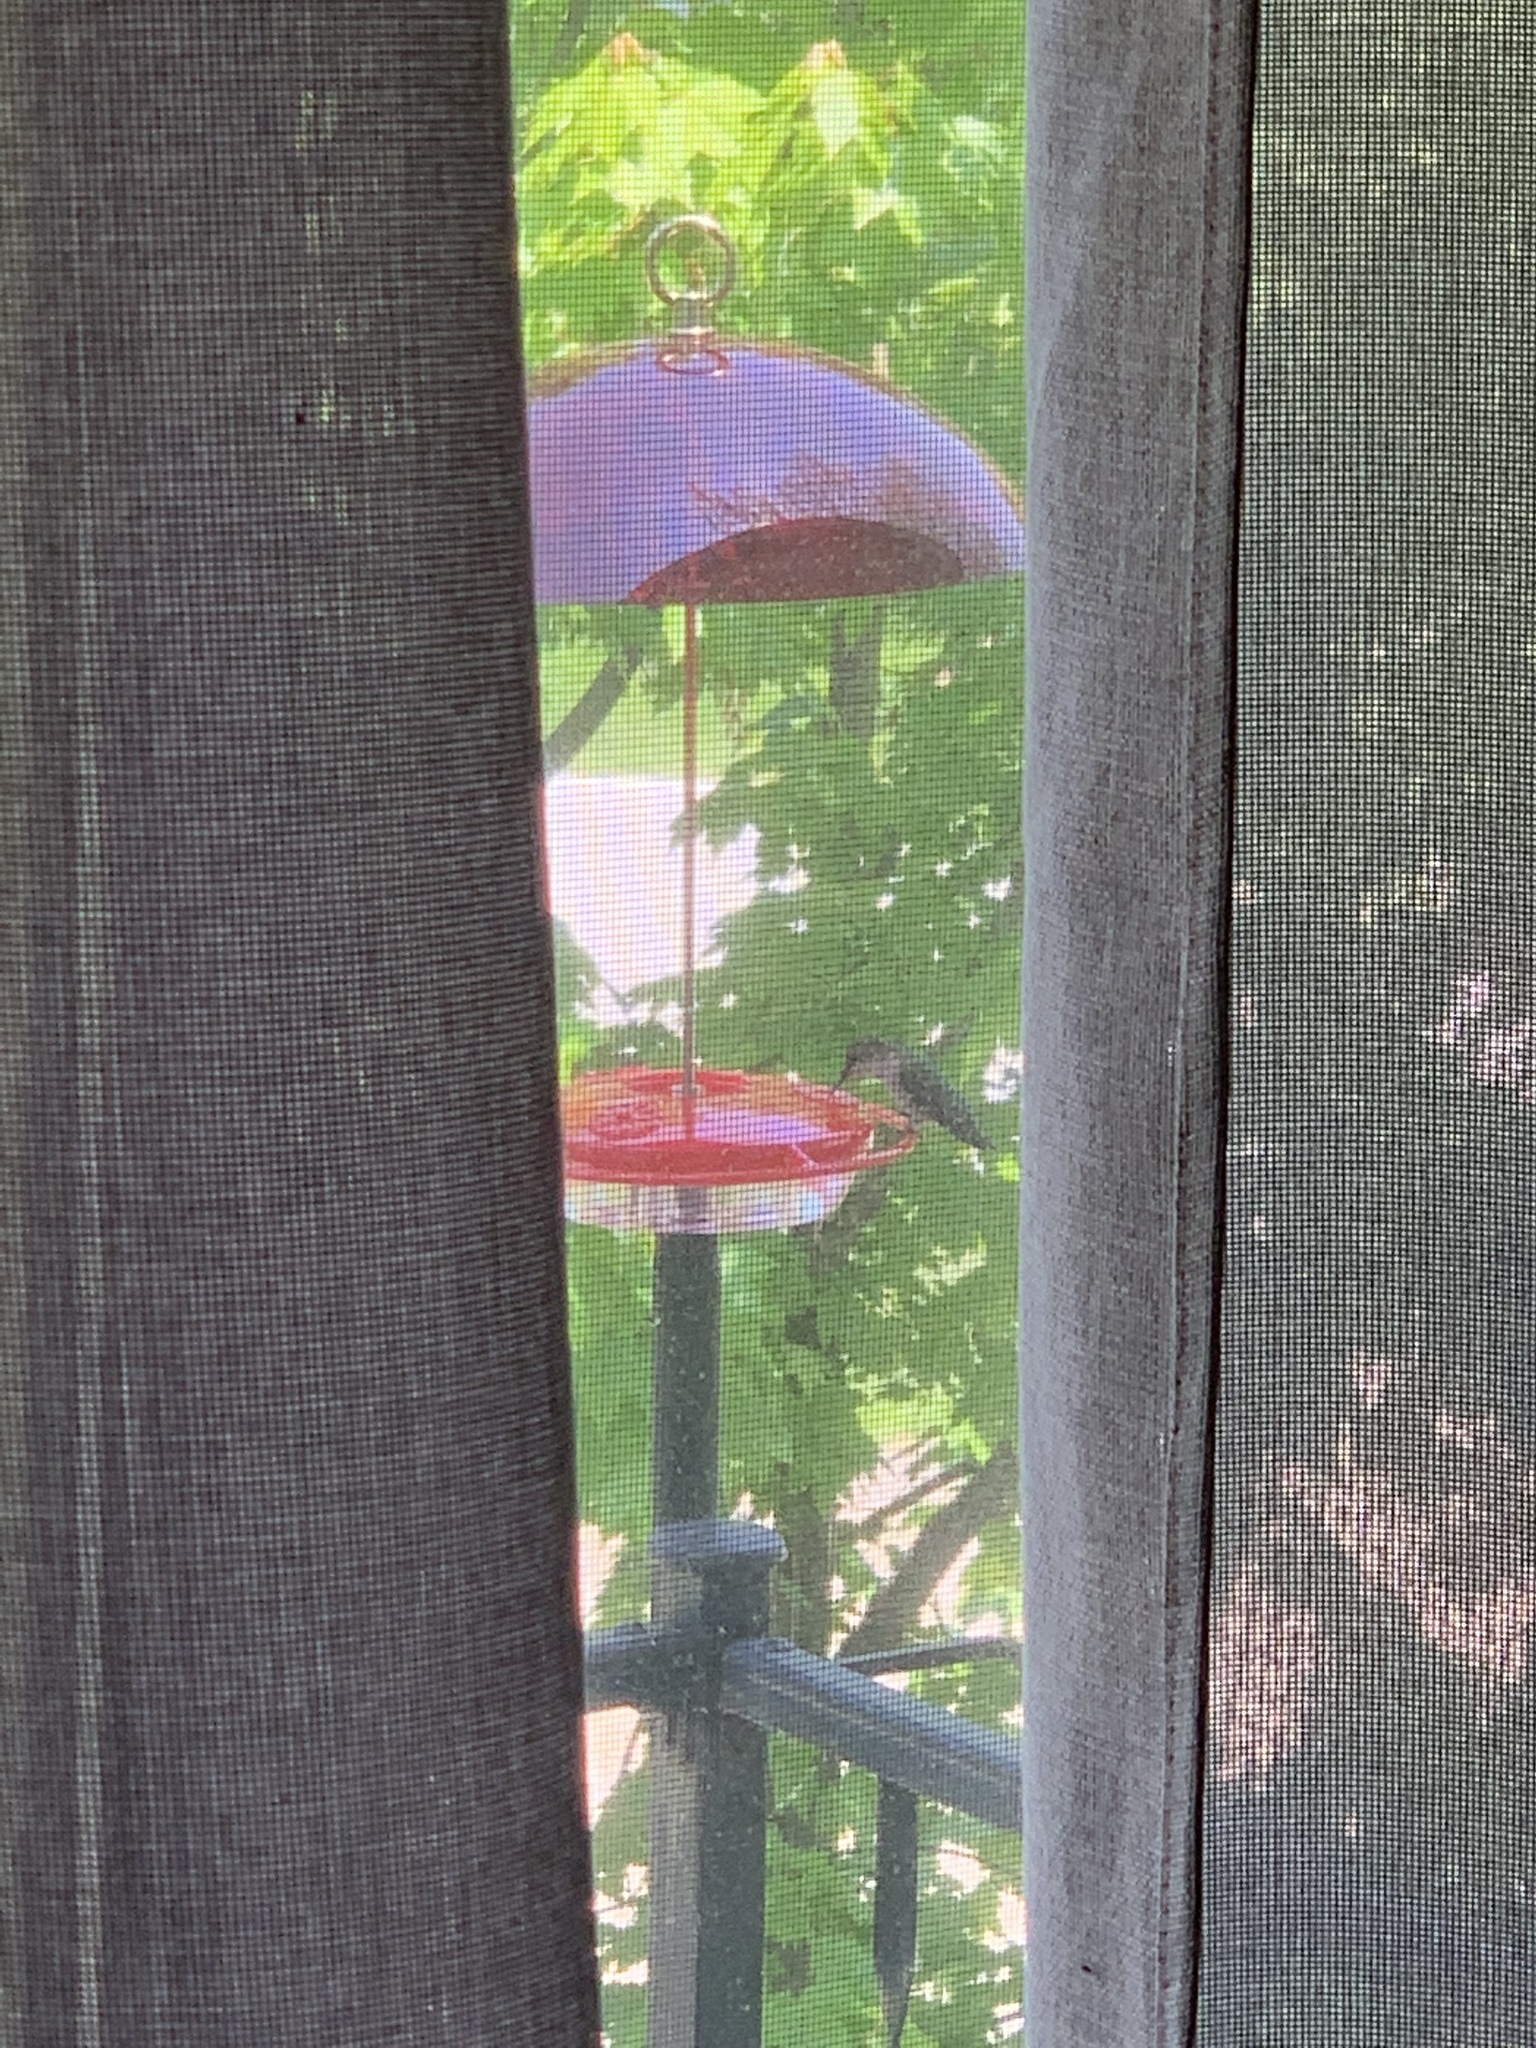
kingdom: Animalia
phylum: Chordata
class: Aves
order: Apodiformes
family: Trochilidae
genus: Archilochus
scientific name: Archilochus colubris
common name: Ruby-throated hummingbird
